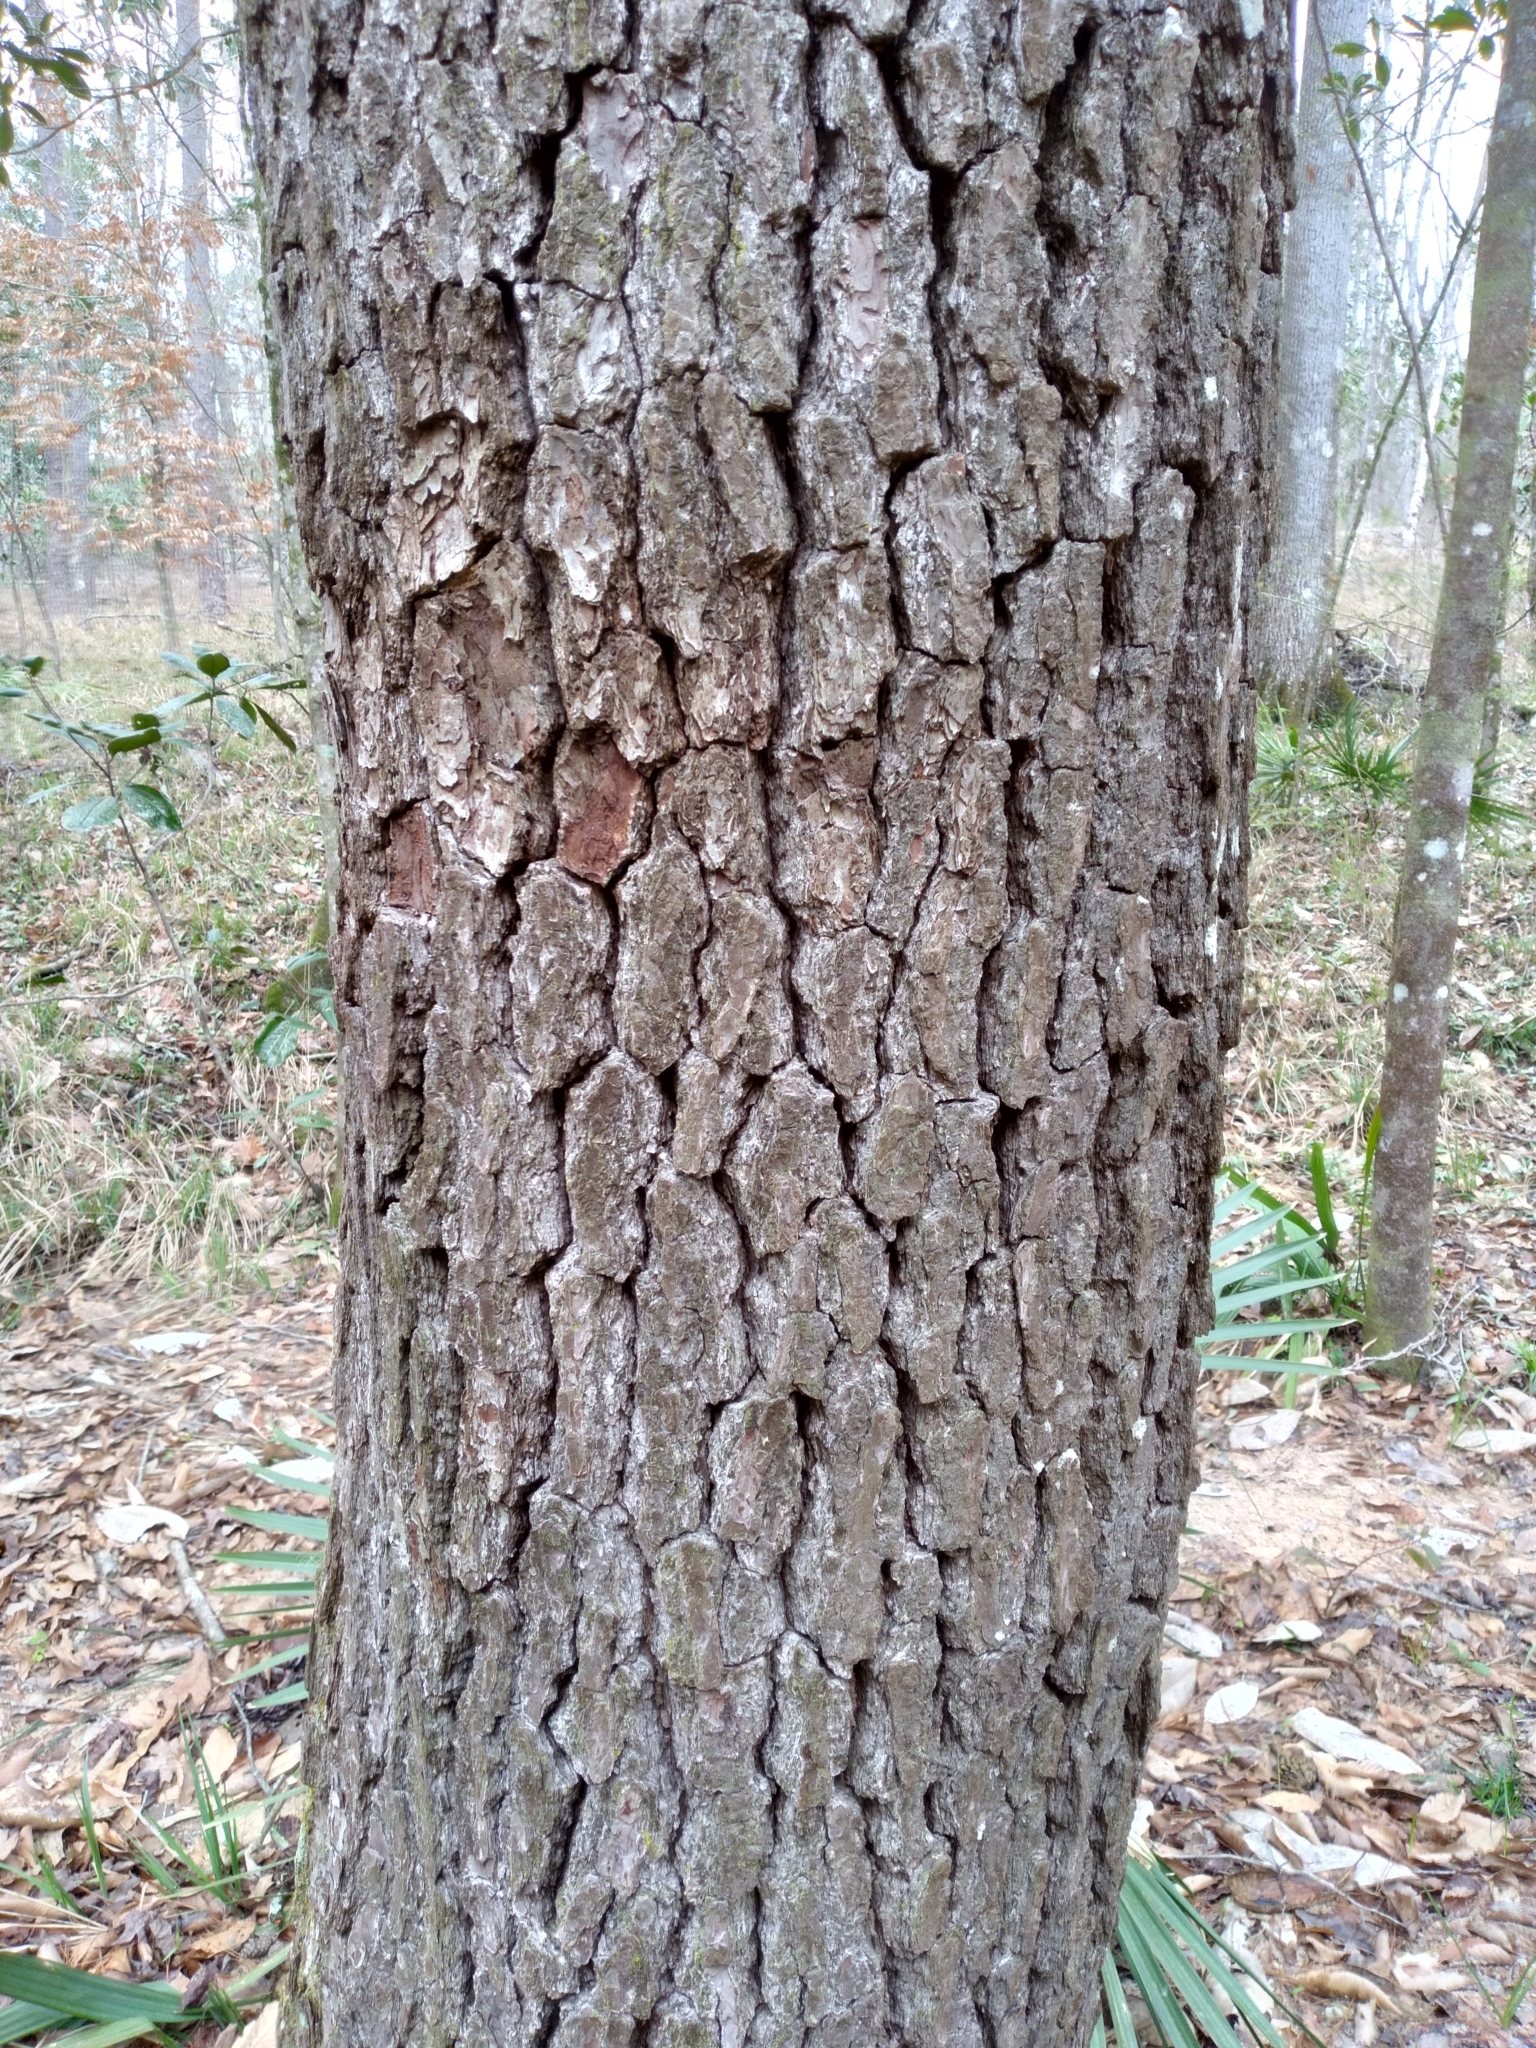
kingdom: Plantae
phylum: Tracheophyta
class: Pinopsida
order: Pinales
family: Pinaceae
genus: Pinus
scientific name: Pinus glabra
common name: Spruce pine
